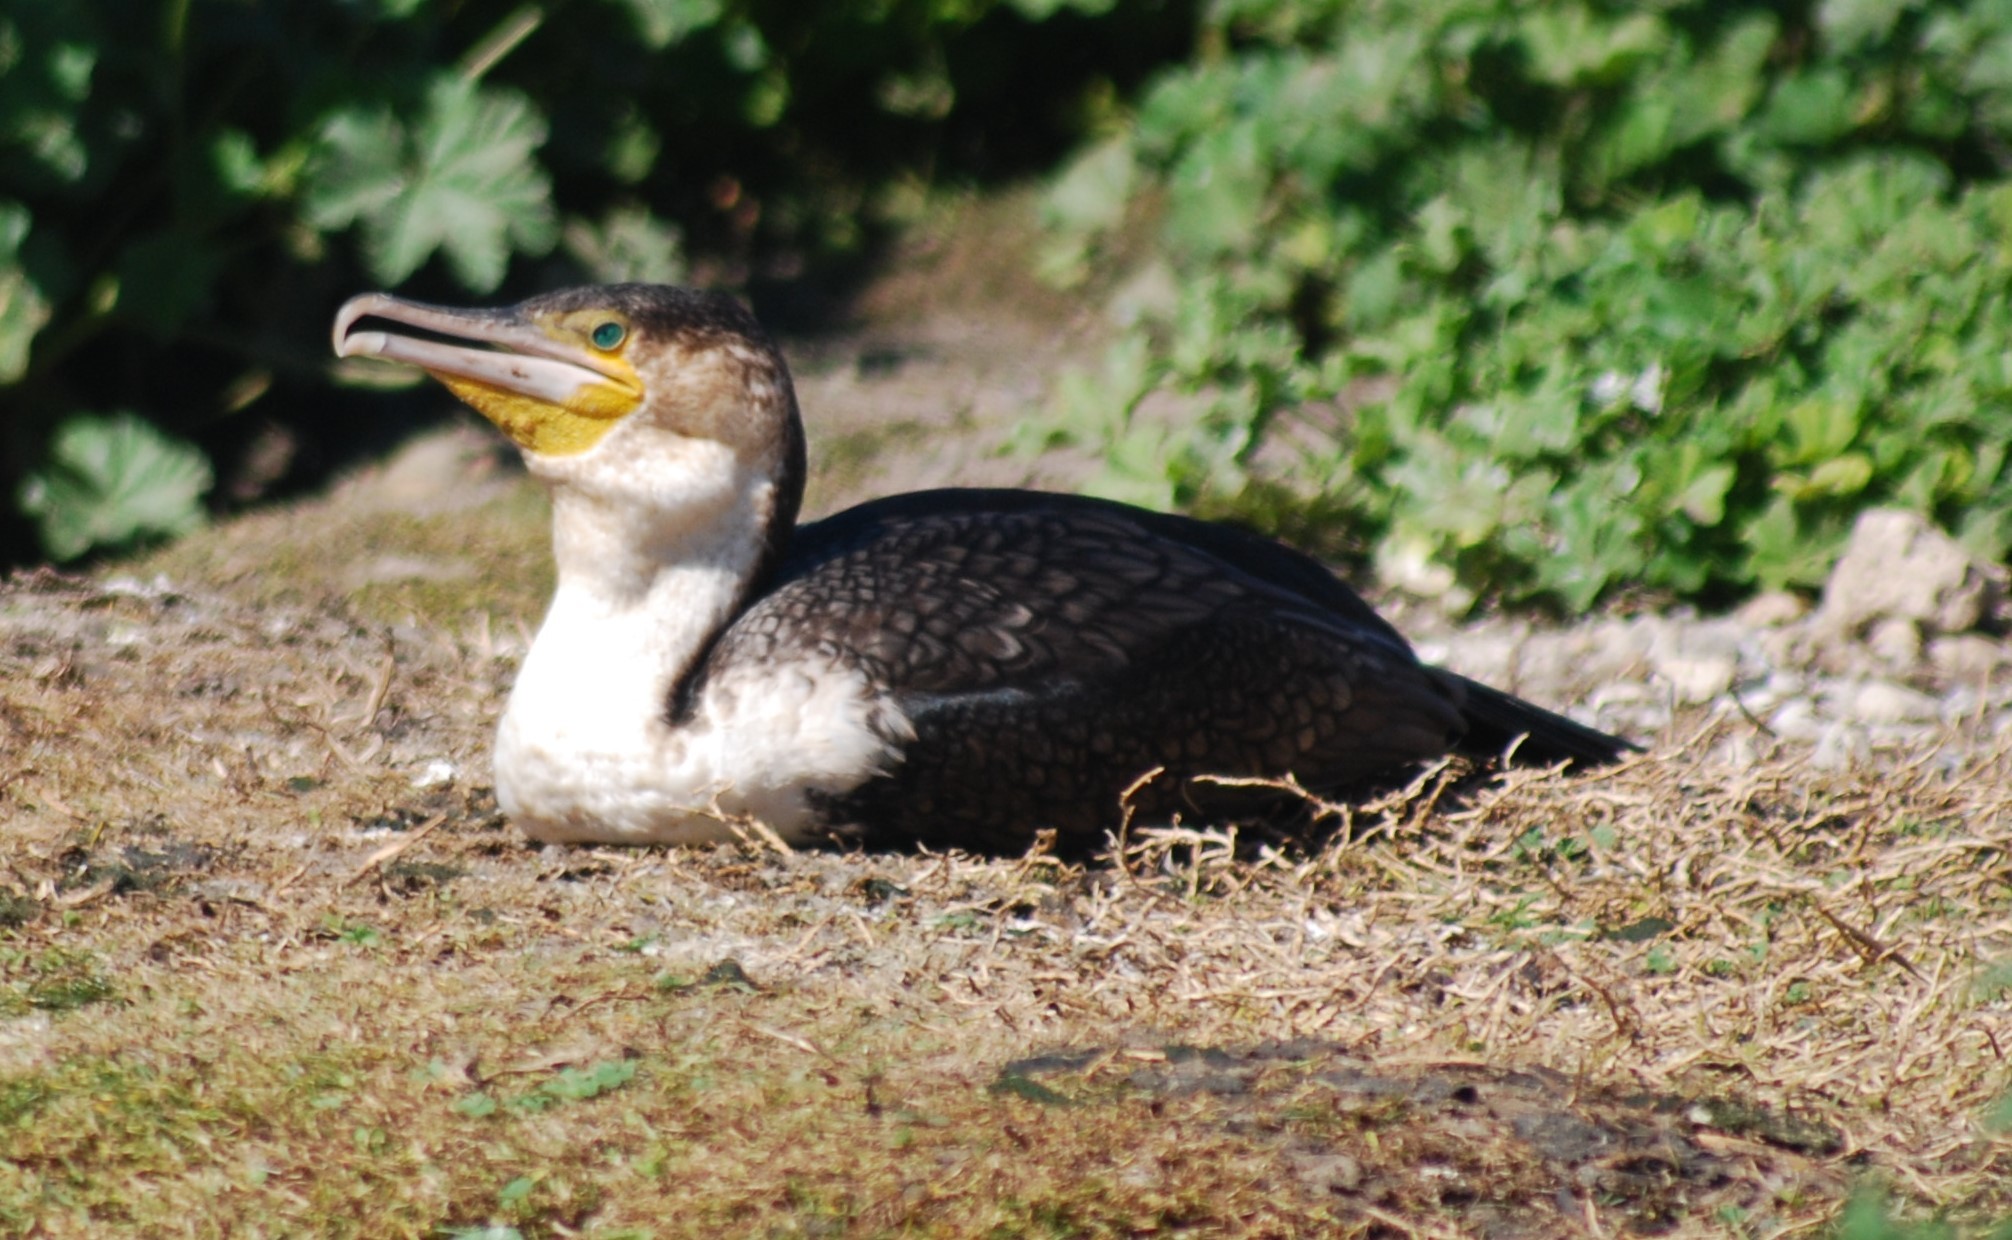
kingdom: Animalia
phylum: Chordata
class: Aves
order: Suliformes
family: Phalacrocoracidae
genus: Phalacrocorax
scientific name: Phalacrocorax carbo
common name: Great cormorant
